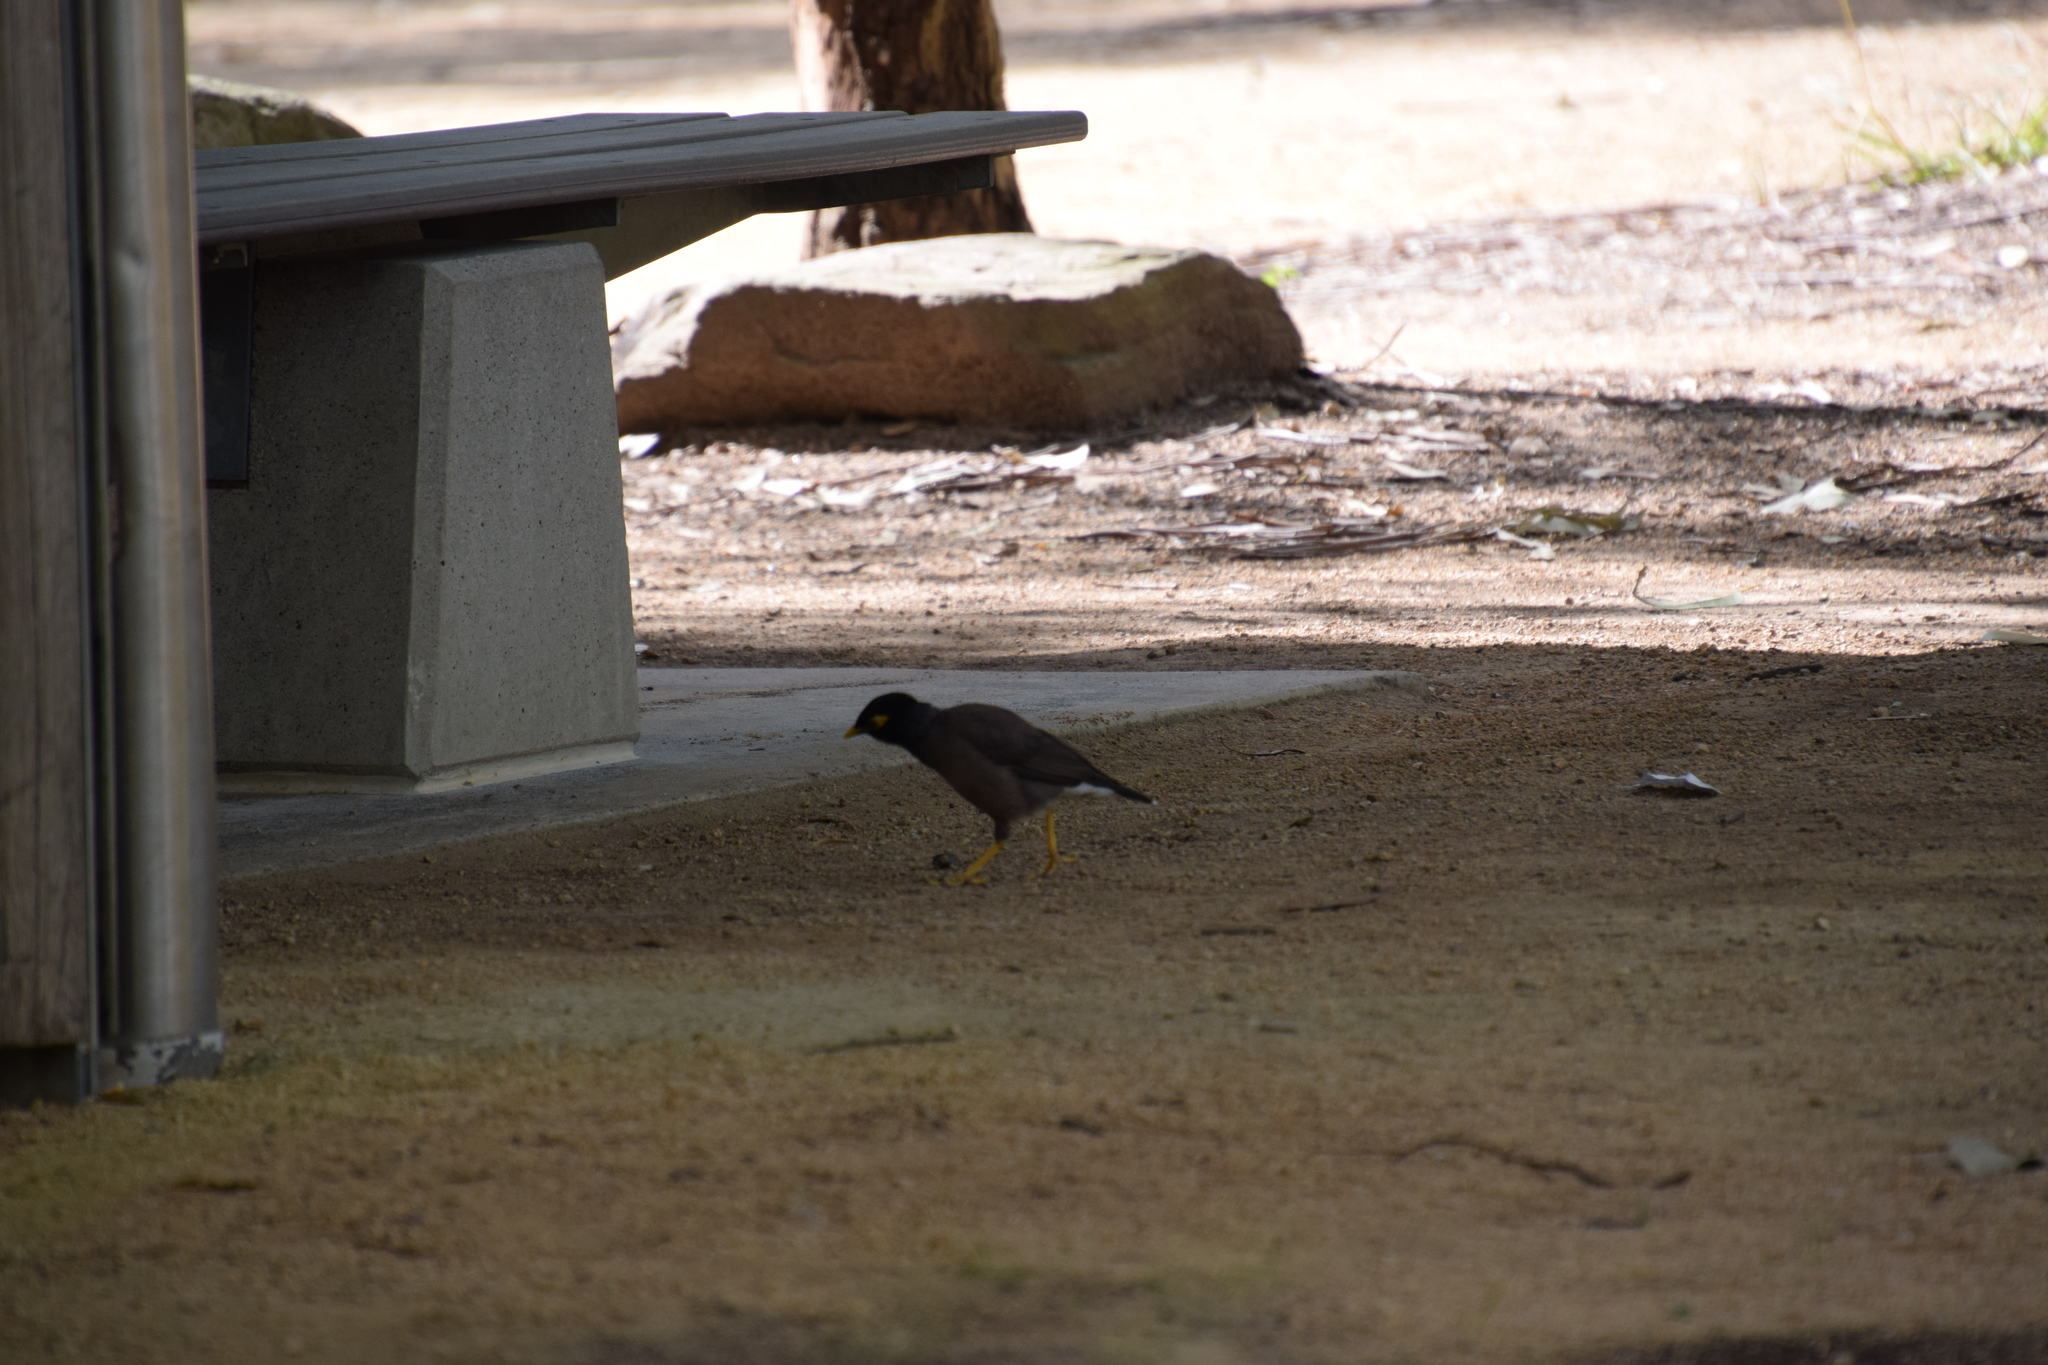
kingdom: Animalia
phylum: Chordata
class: Aves
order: Passeriformes
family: Sturnidae
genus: Acridotheres
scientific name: Acridotheres tristis
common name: Common myna
